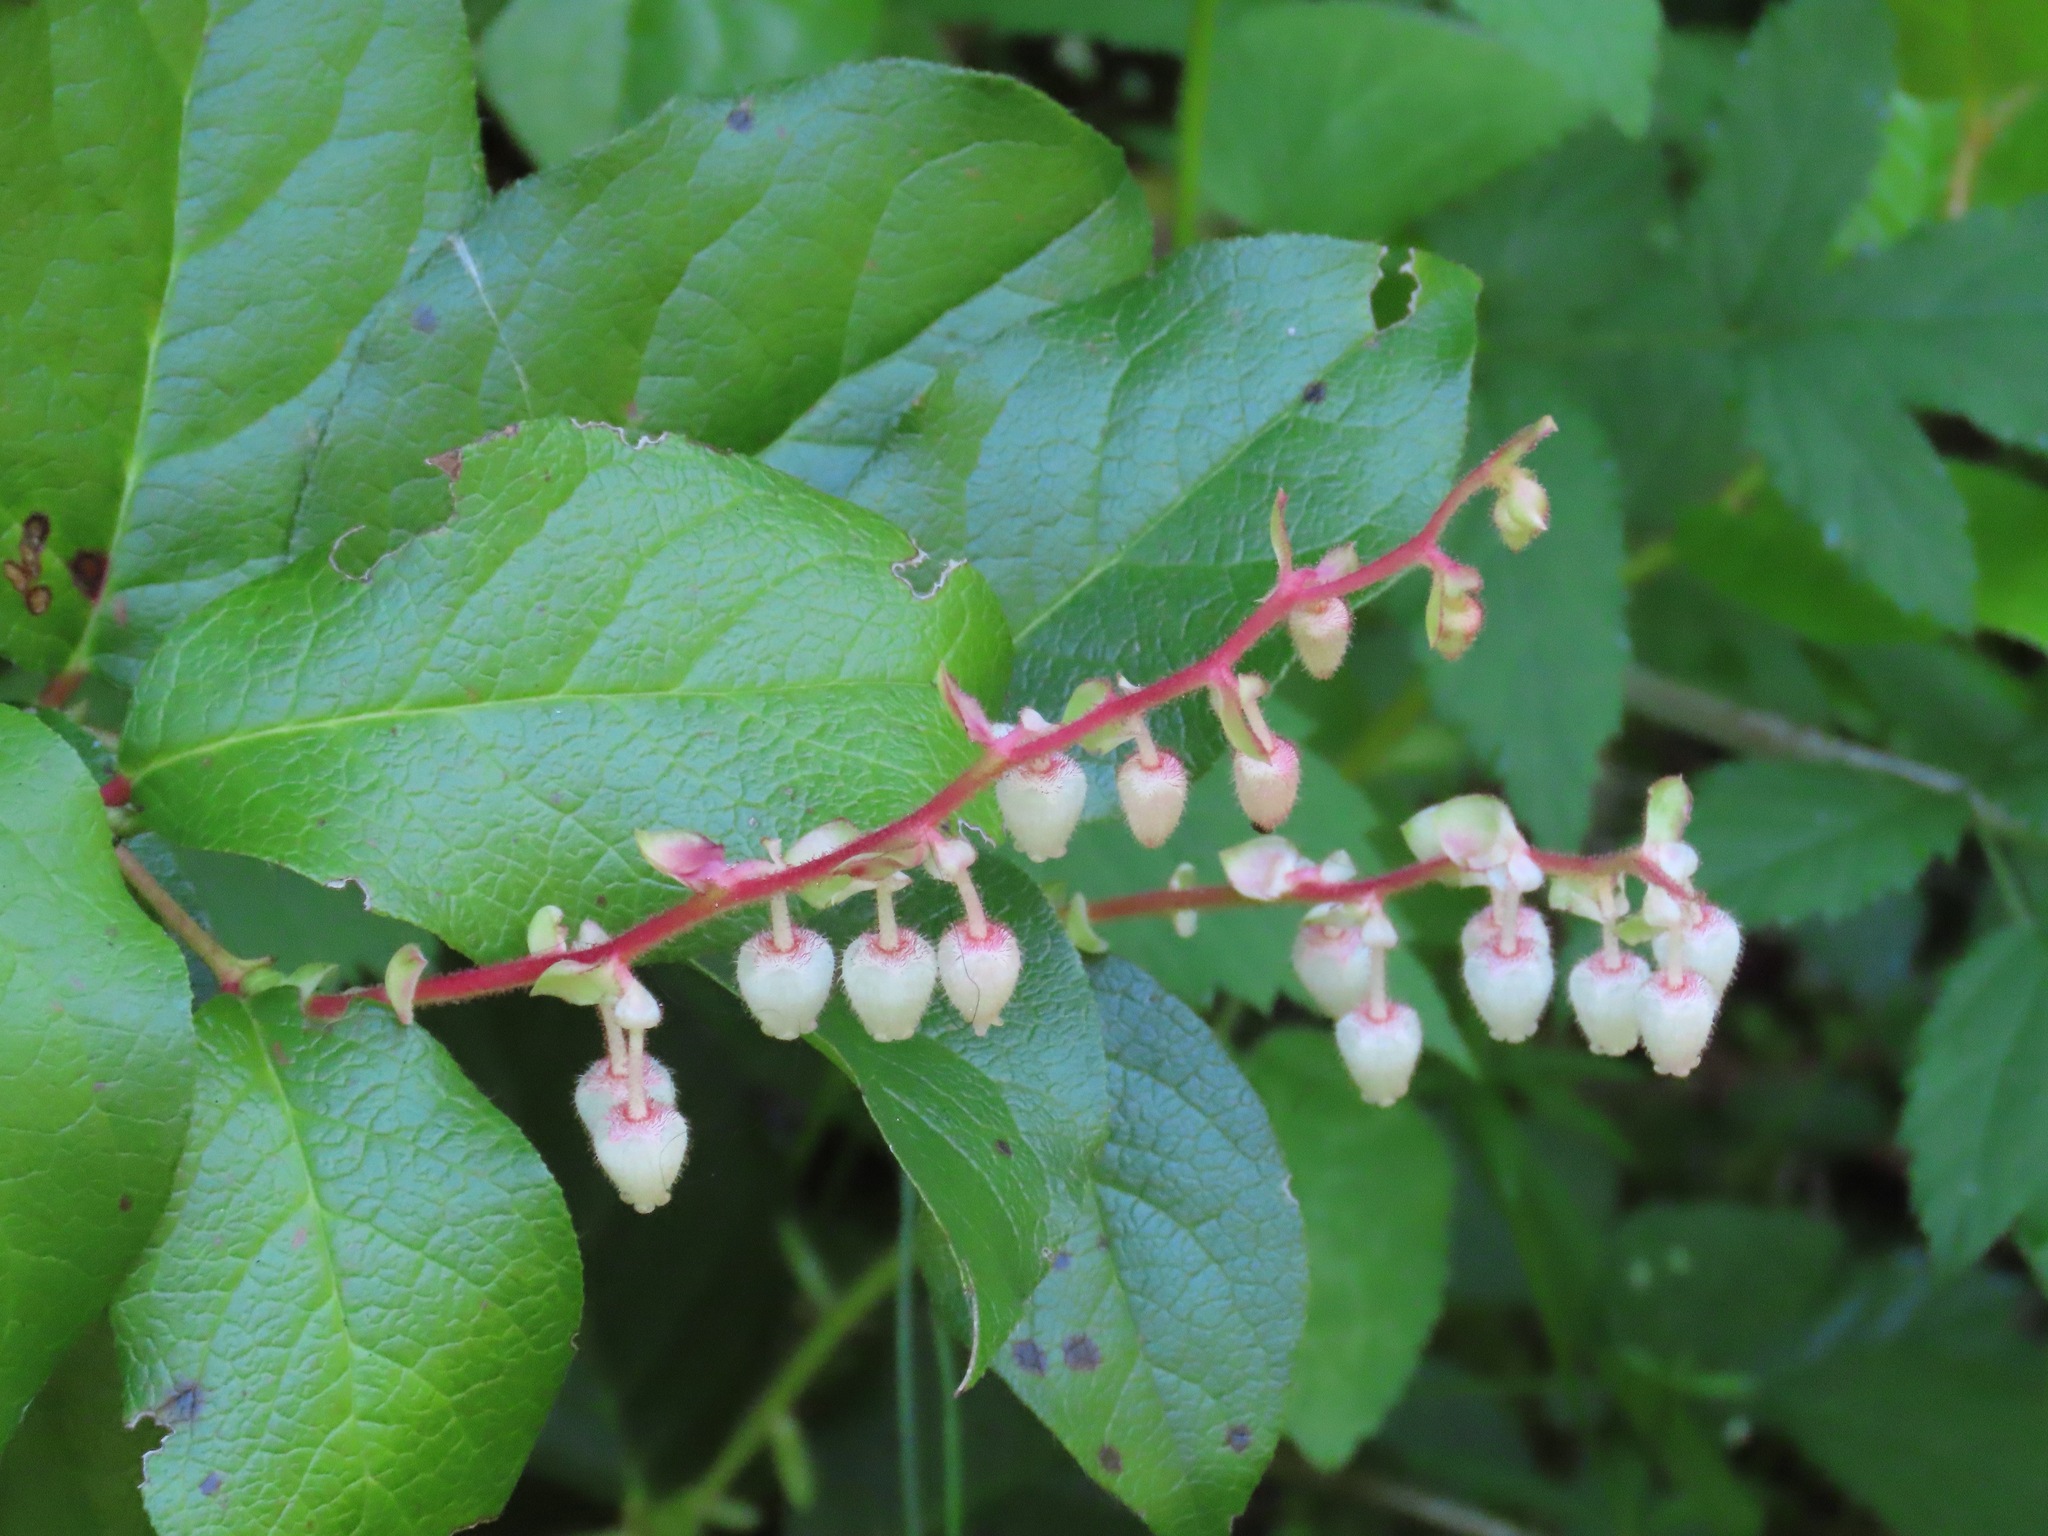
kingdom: Plantae
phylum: Tracheophyta
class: Magnoliopsida
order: Ericales
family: Ericaceae
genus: Gaultheria
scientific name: Gaultheria shallon
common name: Shallon
